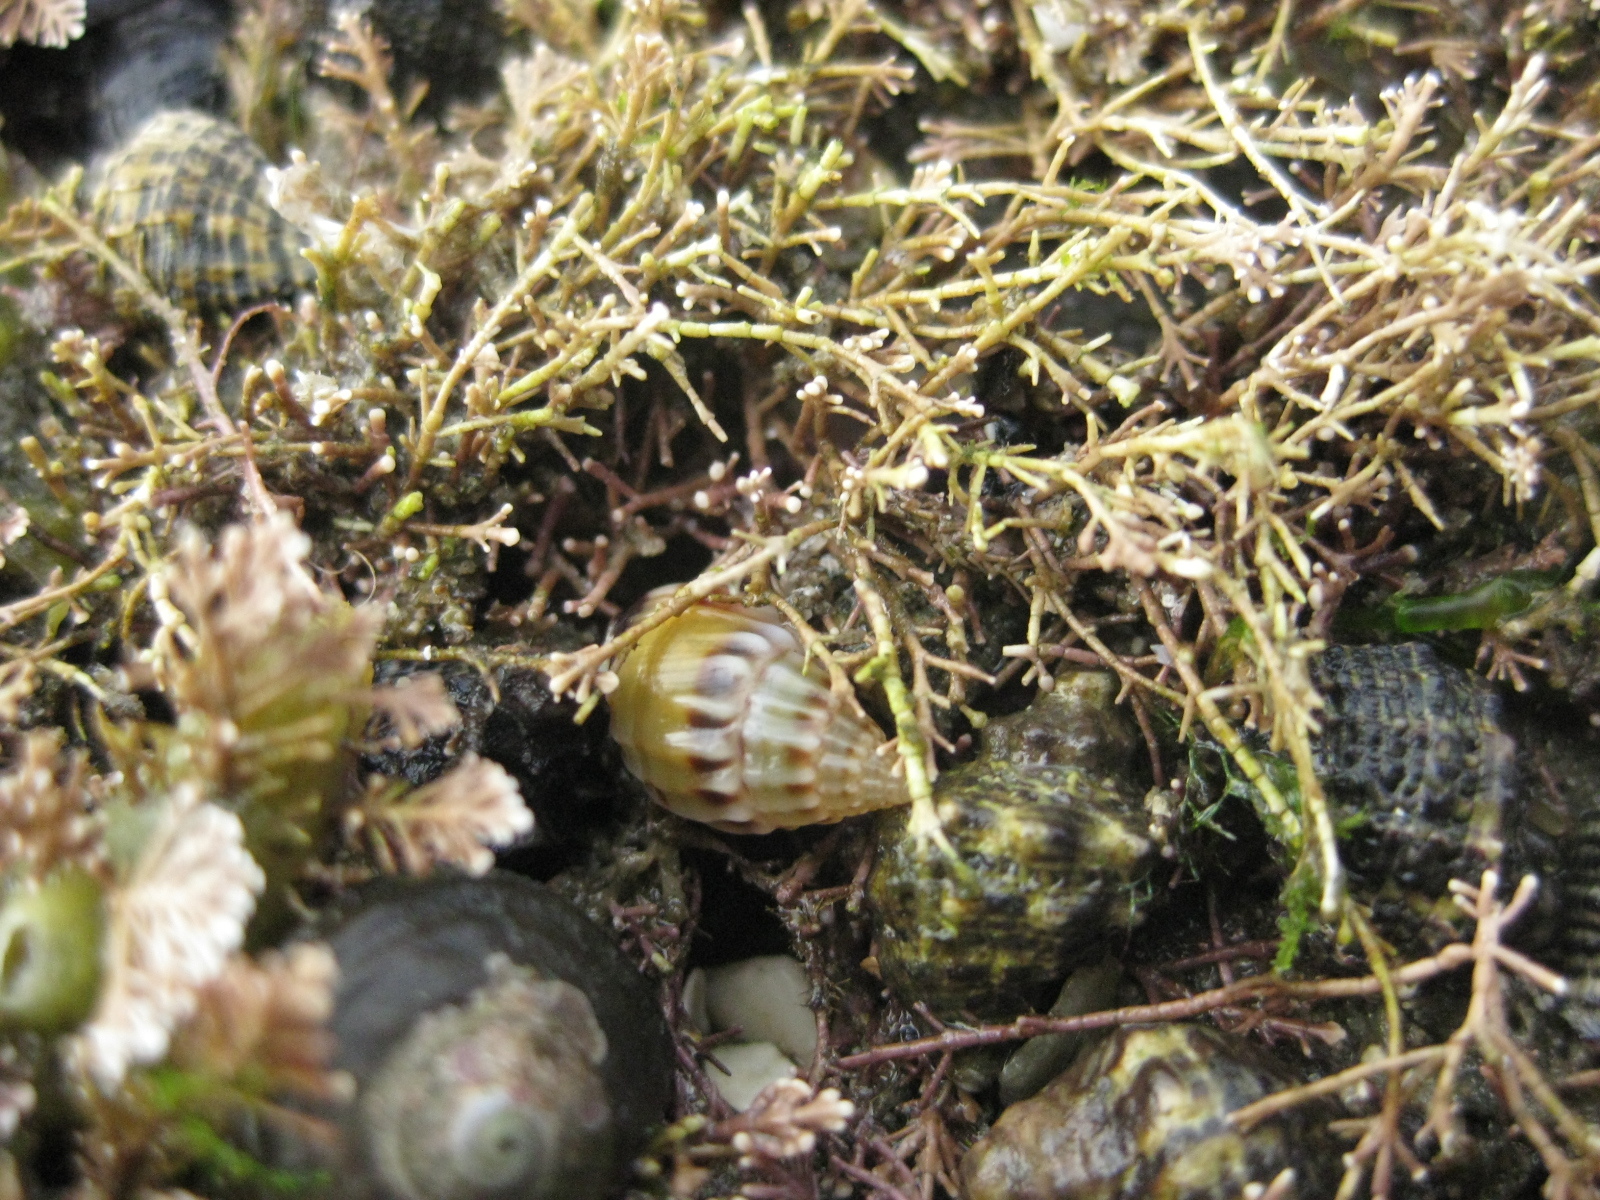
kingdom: Animalia
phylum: Mollusca
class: Gastropoda
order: Neogastropoda
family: Nassariidae
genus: Tritia
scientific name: Tritia burchardi
